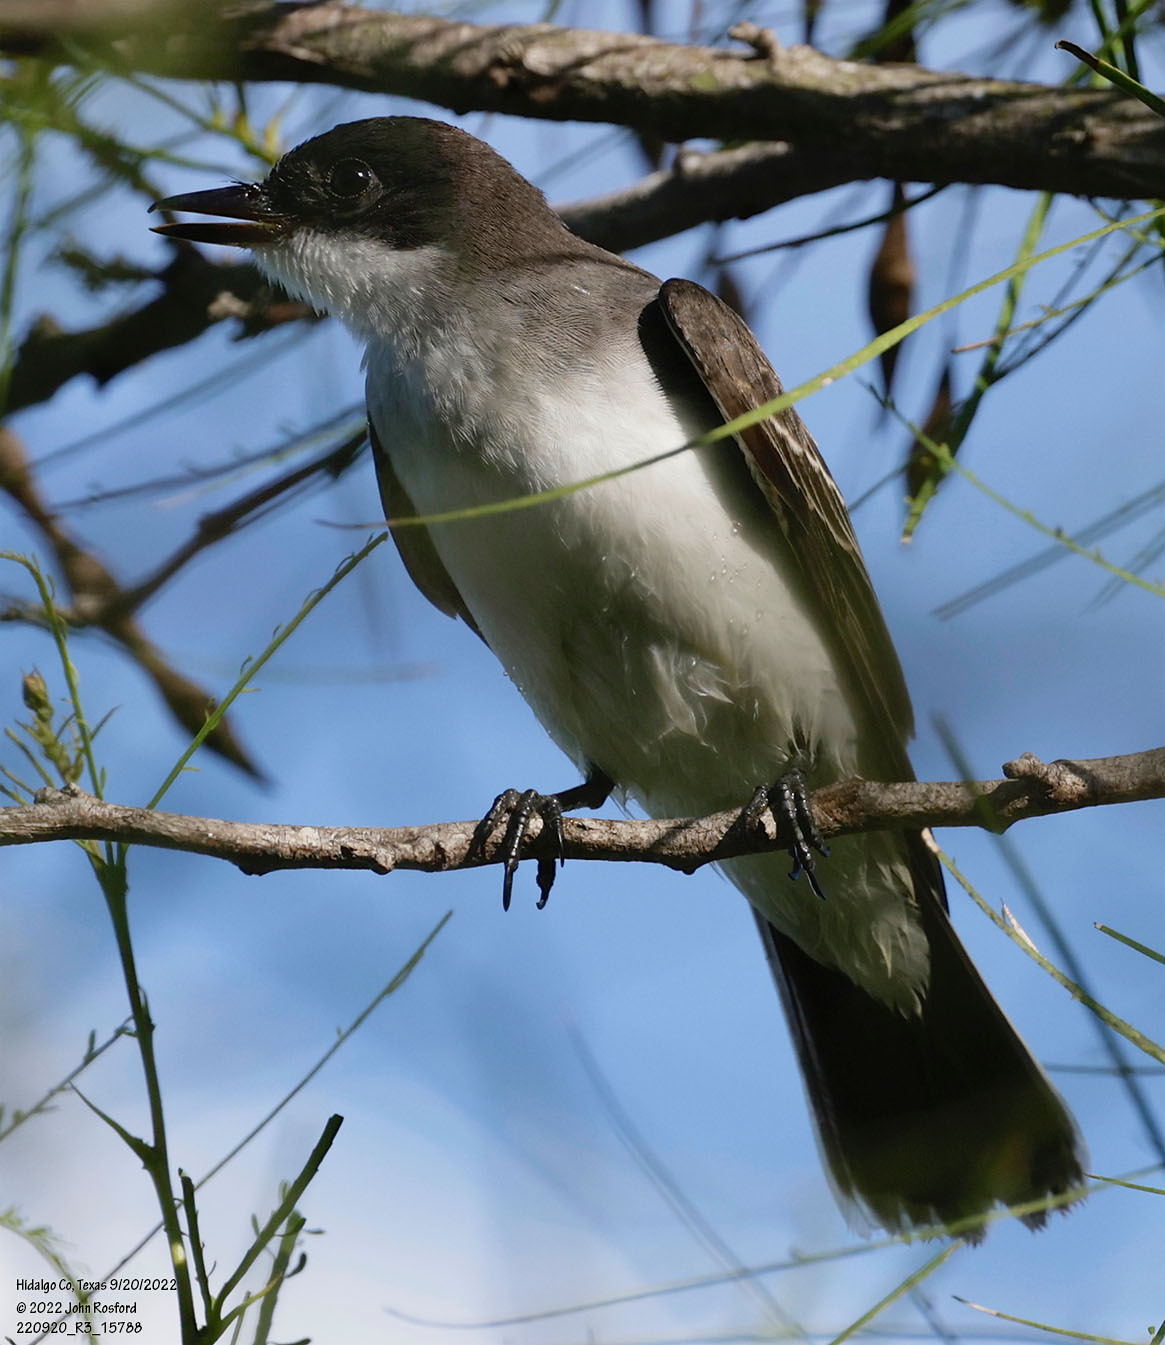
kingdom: Animalia
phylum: Chordata
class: Aves
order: Passeriformes
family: Tyrannidae
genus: Tyrannus
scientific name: Tyrannus tyrannus
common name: Eastern kingbird
